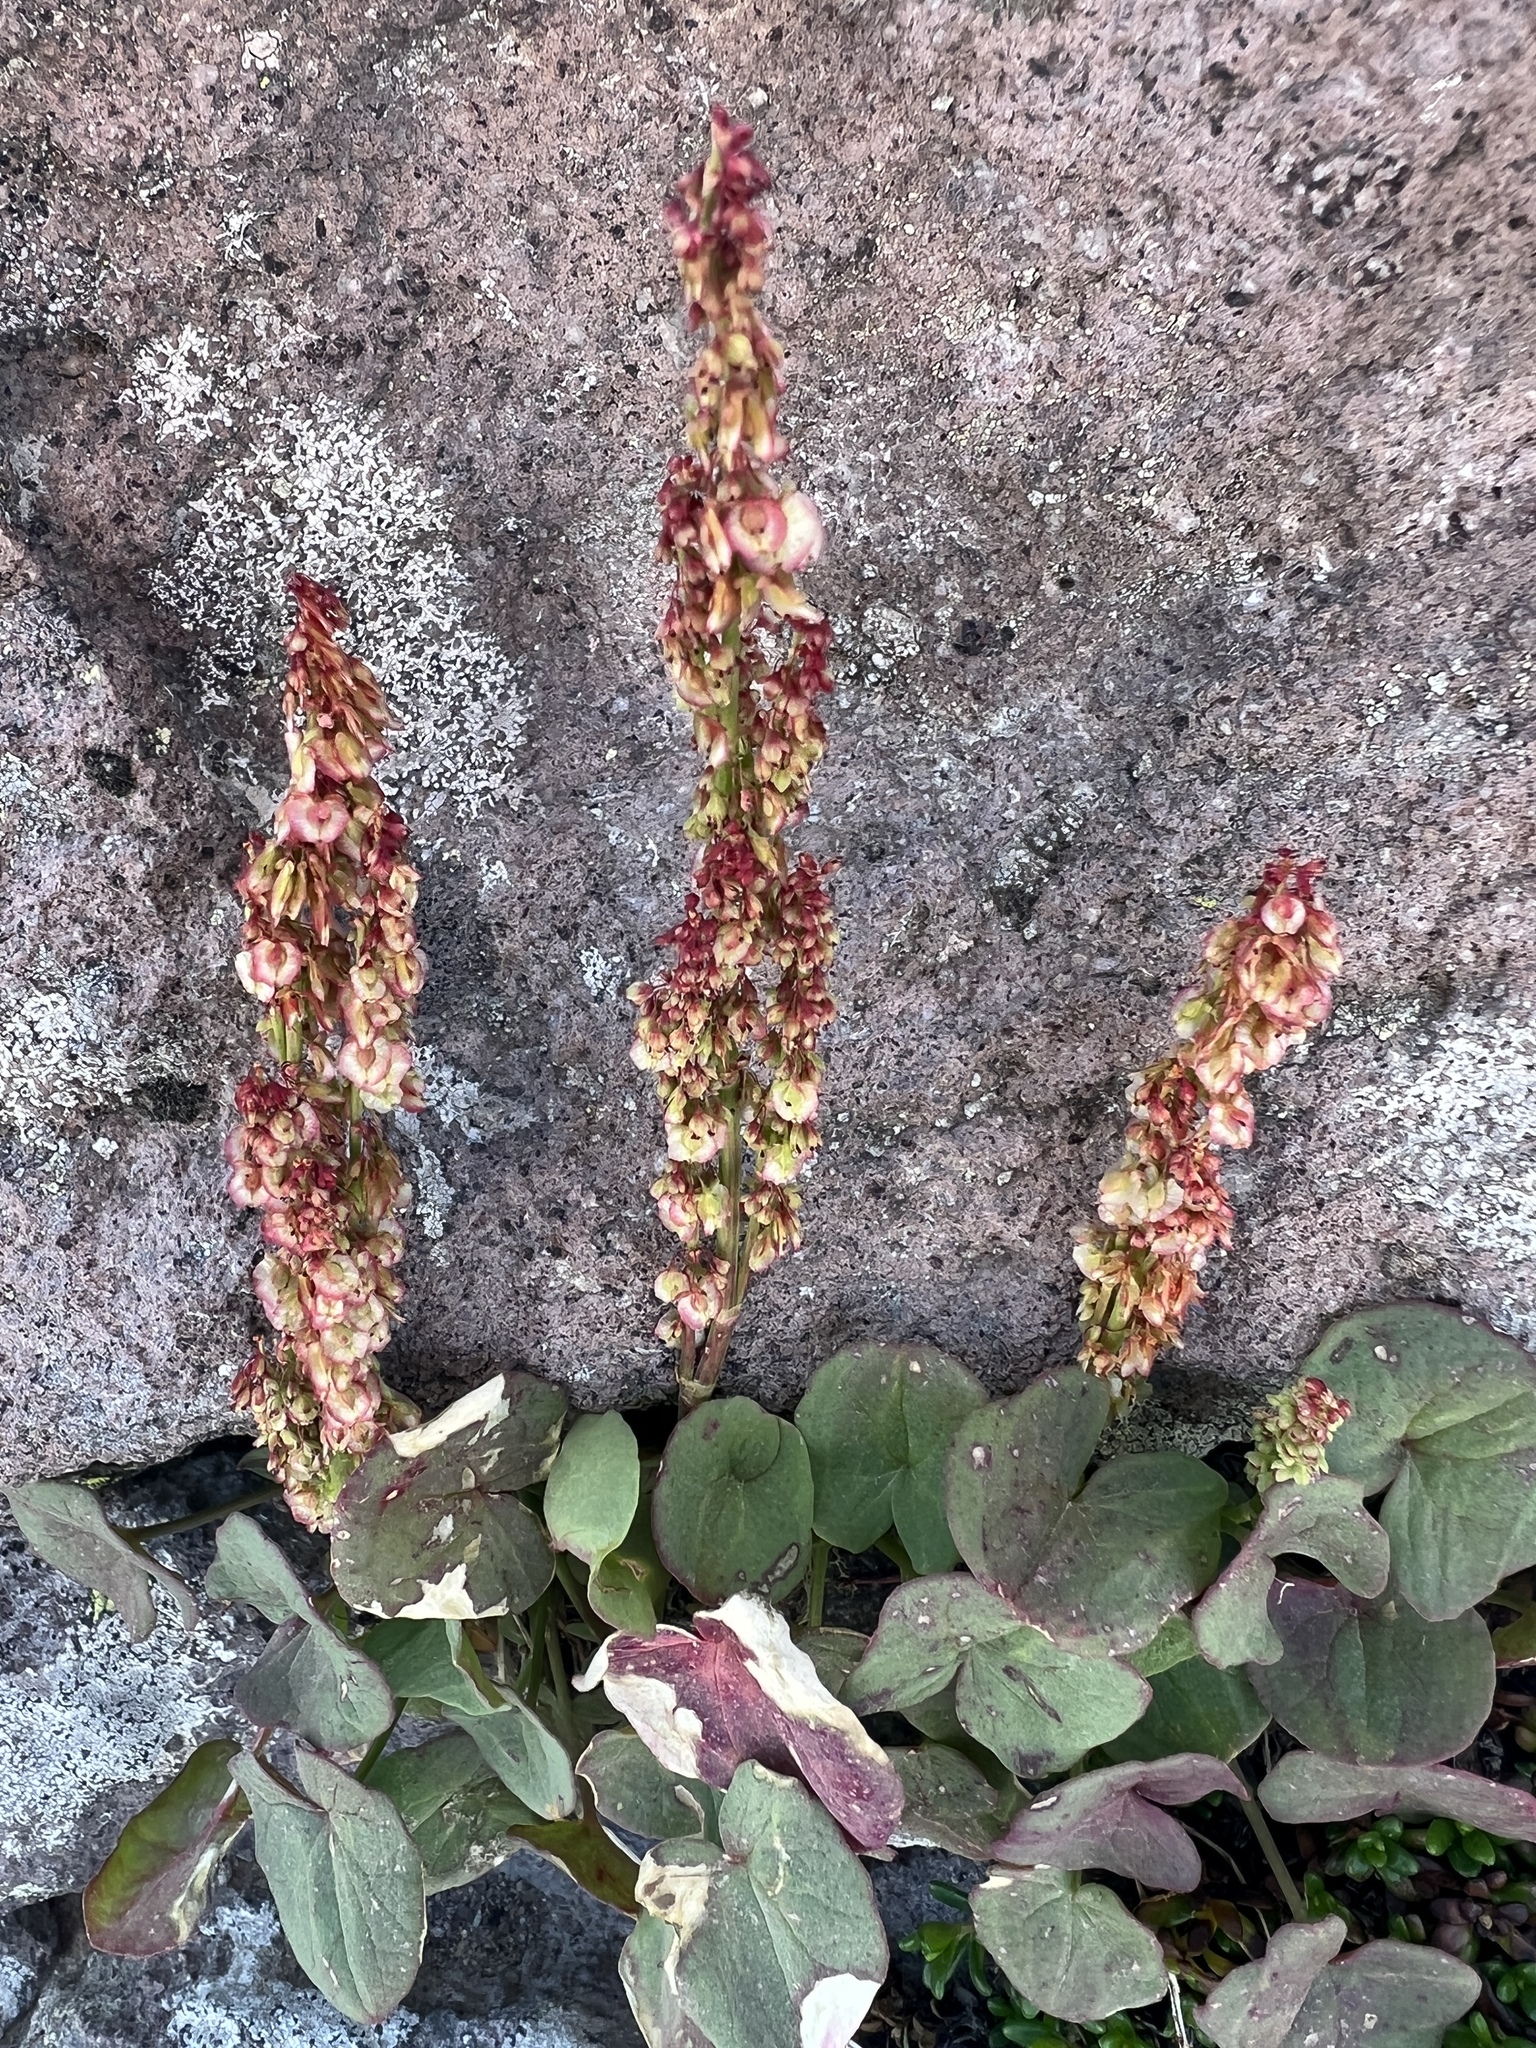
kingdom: Plantae
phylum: Tracheophyta
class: Magnoliopsida
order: Caryophyllales
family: Polygonaceae
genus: Oxyria
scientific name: Oxyria digyna
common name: Alpine mountain-sorrel
